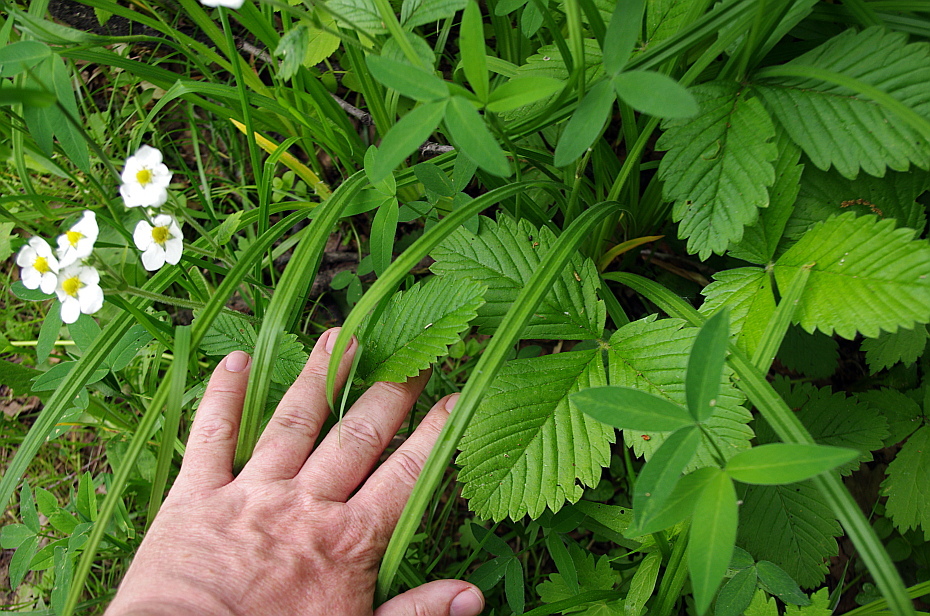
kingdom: Plantae
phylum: Tracheophyta
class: Magnoliopsida
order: Rosales
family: Rosaceae
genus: Fragaria
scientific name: Fragaria moschata
